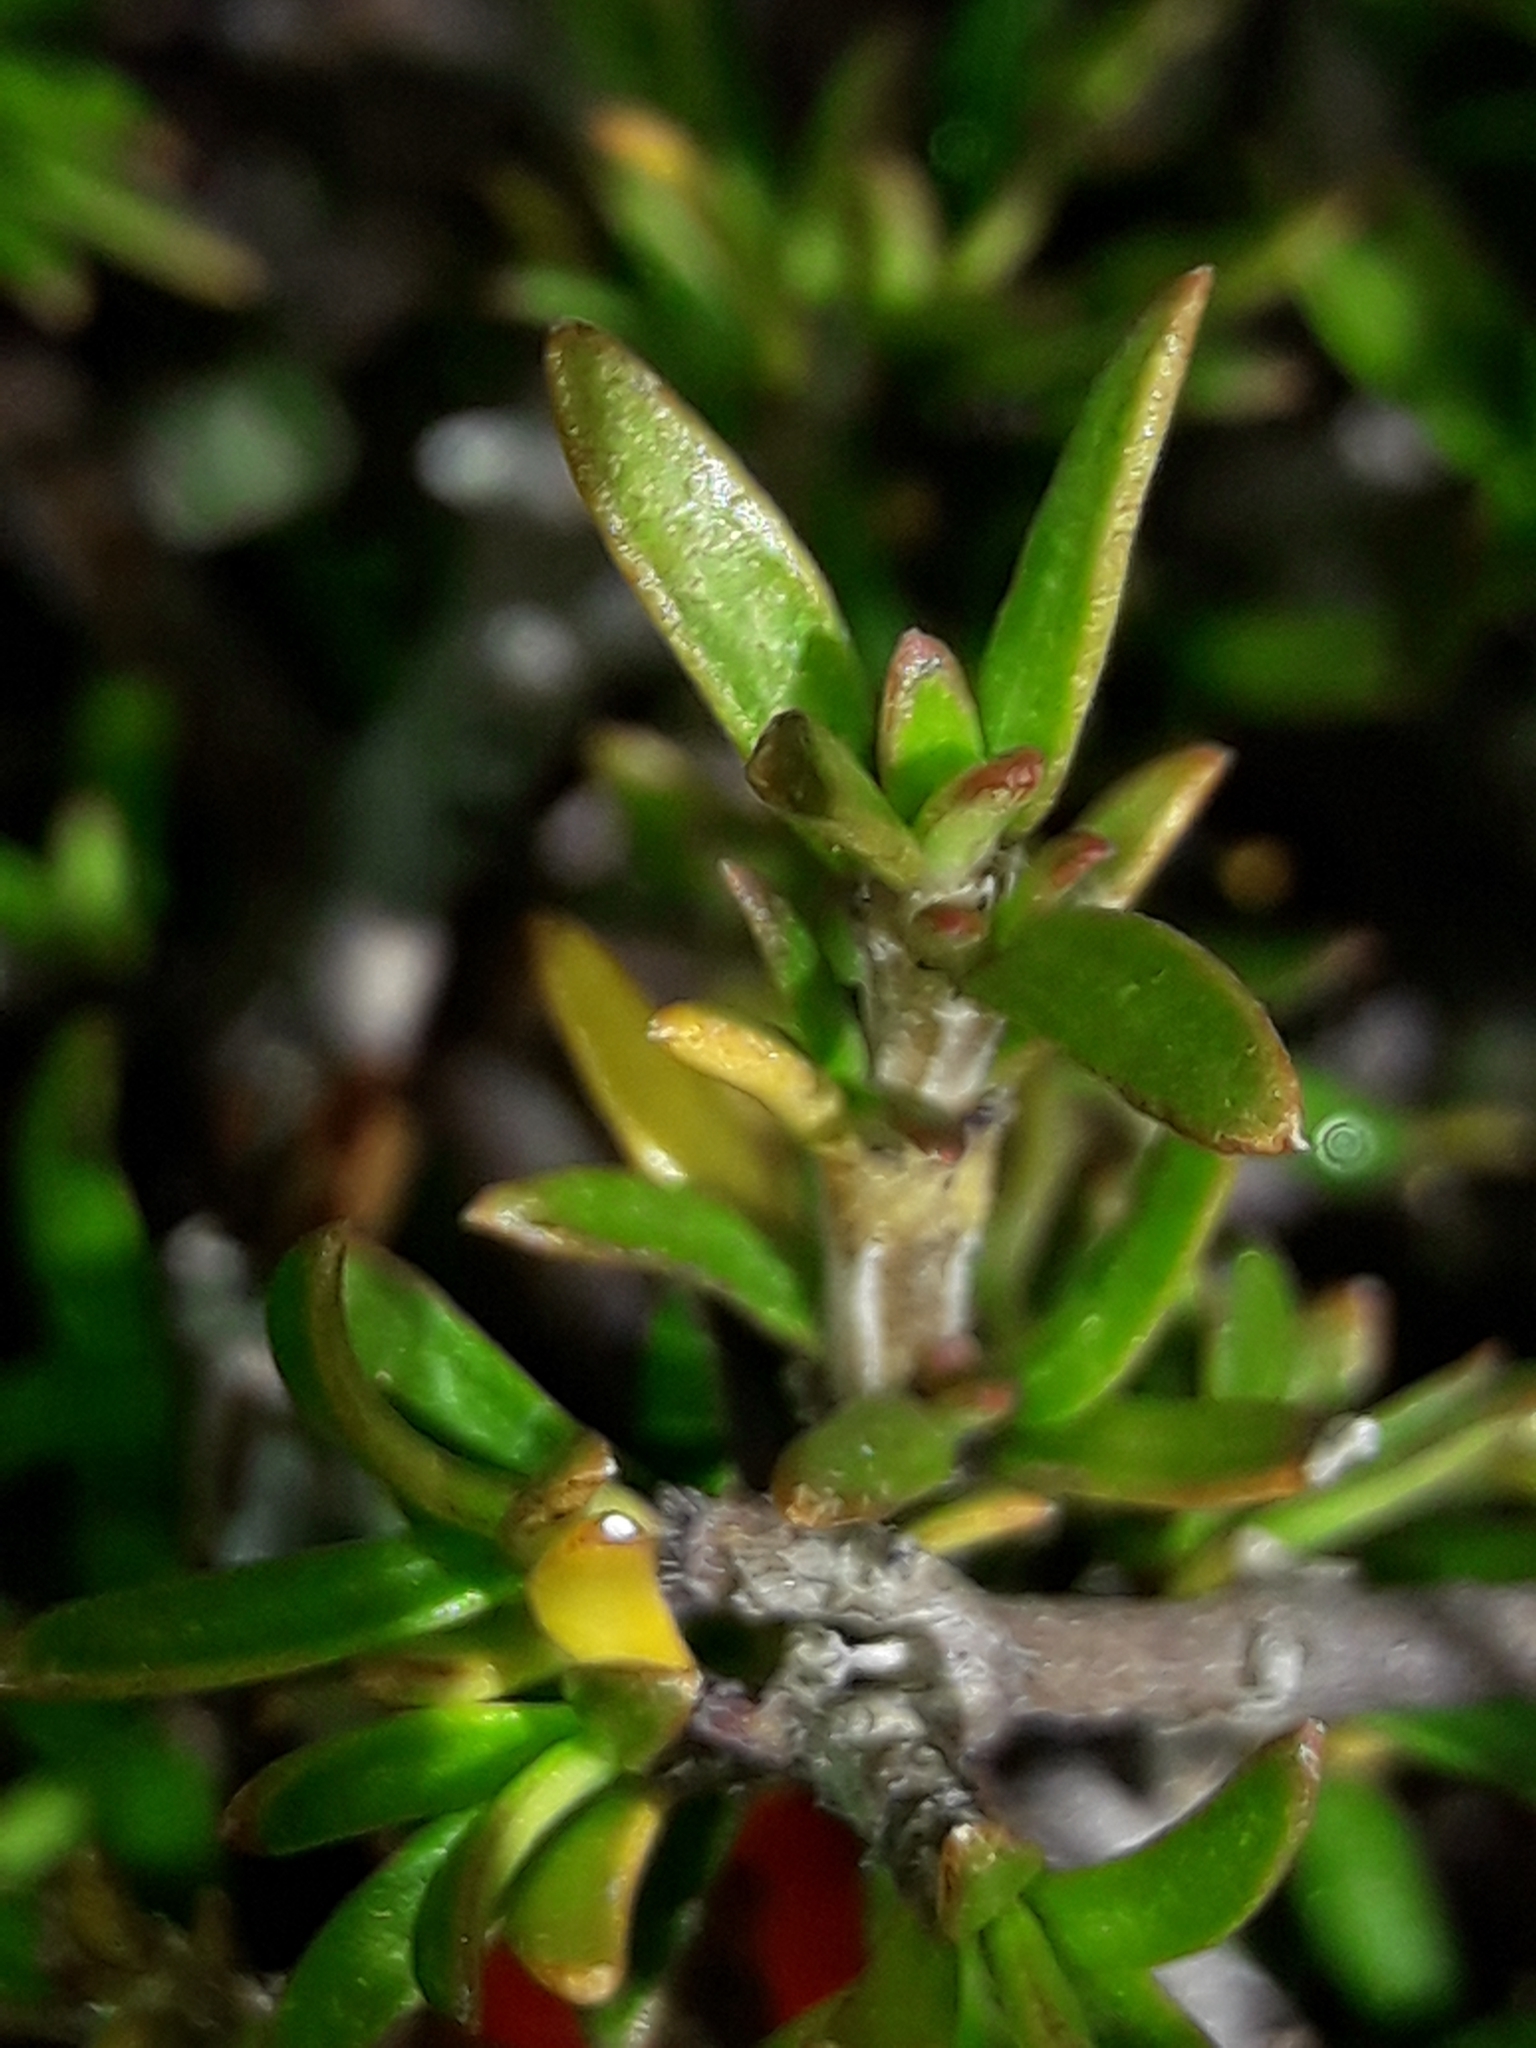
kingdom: Plantae
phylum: Tracheophyta
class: Magnoliopsida
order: Gentianales
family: Rubiaceae
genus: Coprosma
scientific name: Coprosma cheesemanii
